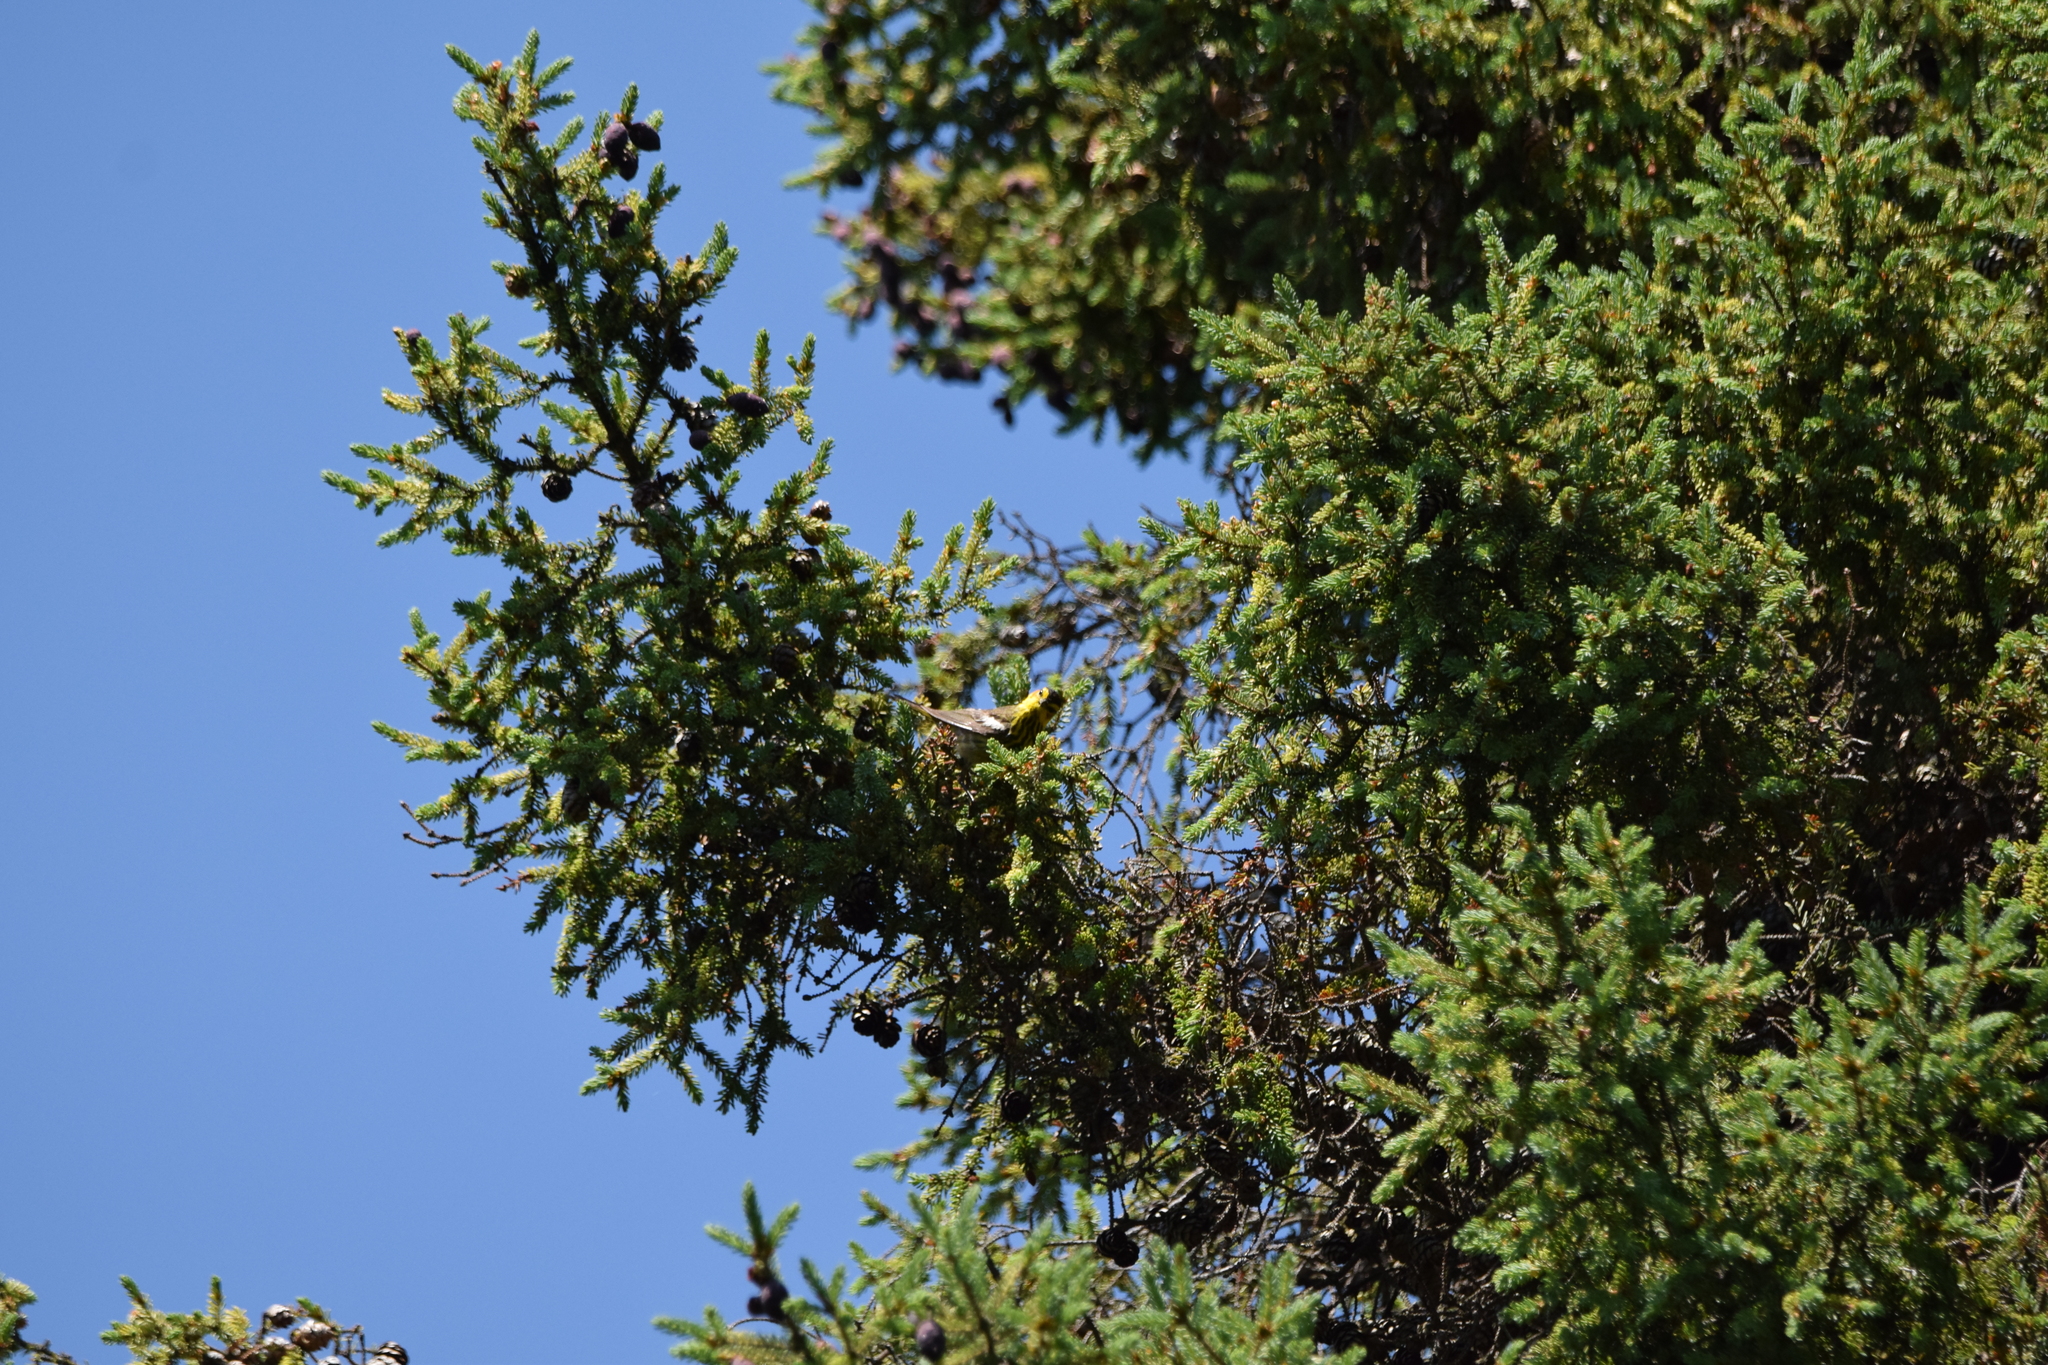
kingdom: Animalia
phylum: Chordata
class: Aves
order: Passeriformes
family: Parulidae
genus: Setophaga
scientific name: Setophaga tigrina
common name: Cape may warbler
